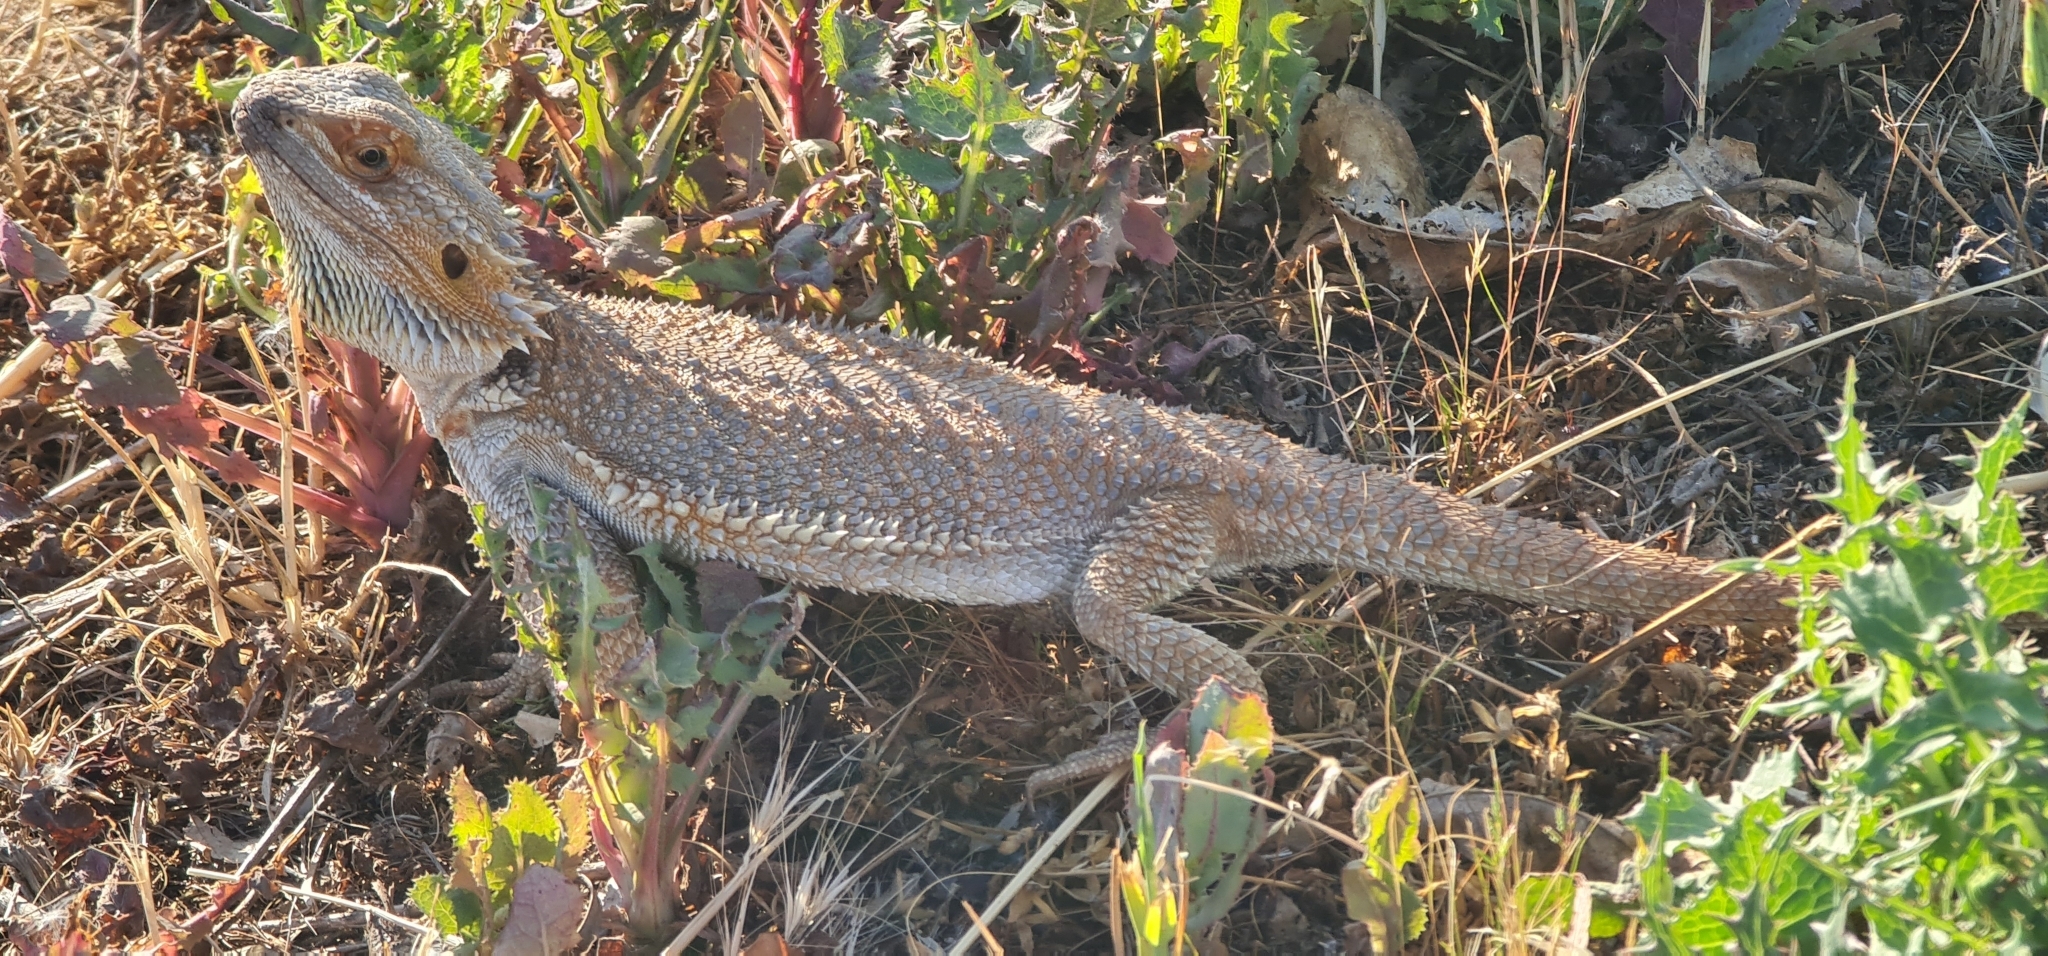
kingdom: Animalia
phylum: Chordata
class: Squamata
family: Agamidae
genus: Pogona
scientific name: Pogona vitticeps
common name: Central bearded dragon
